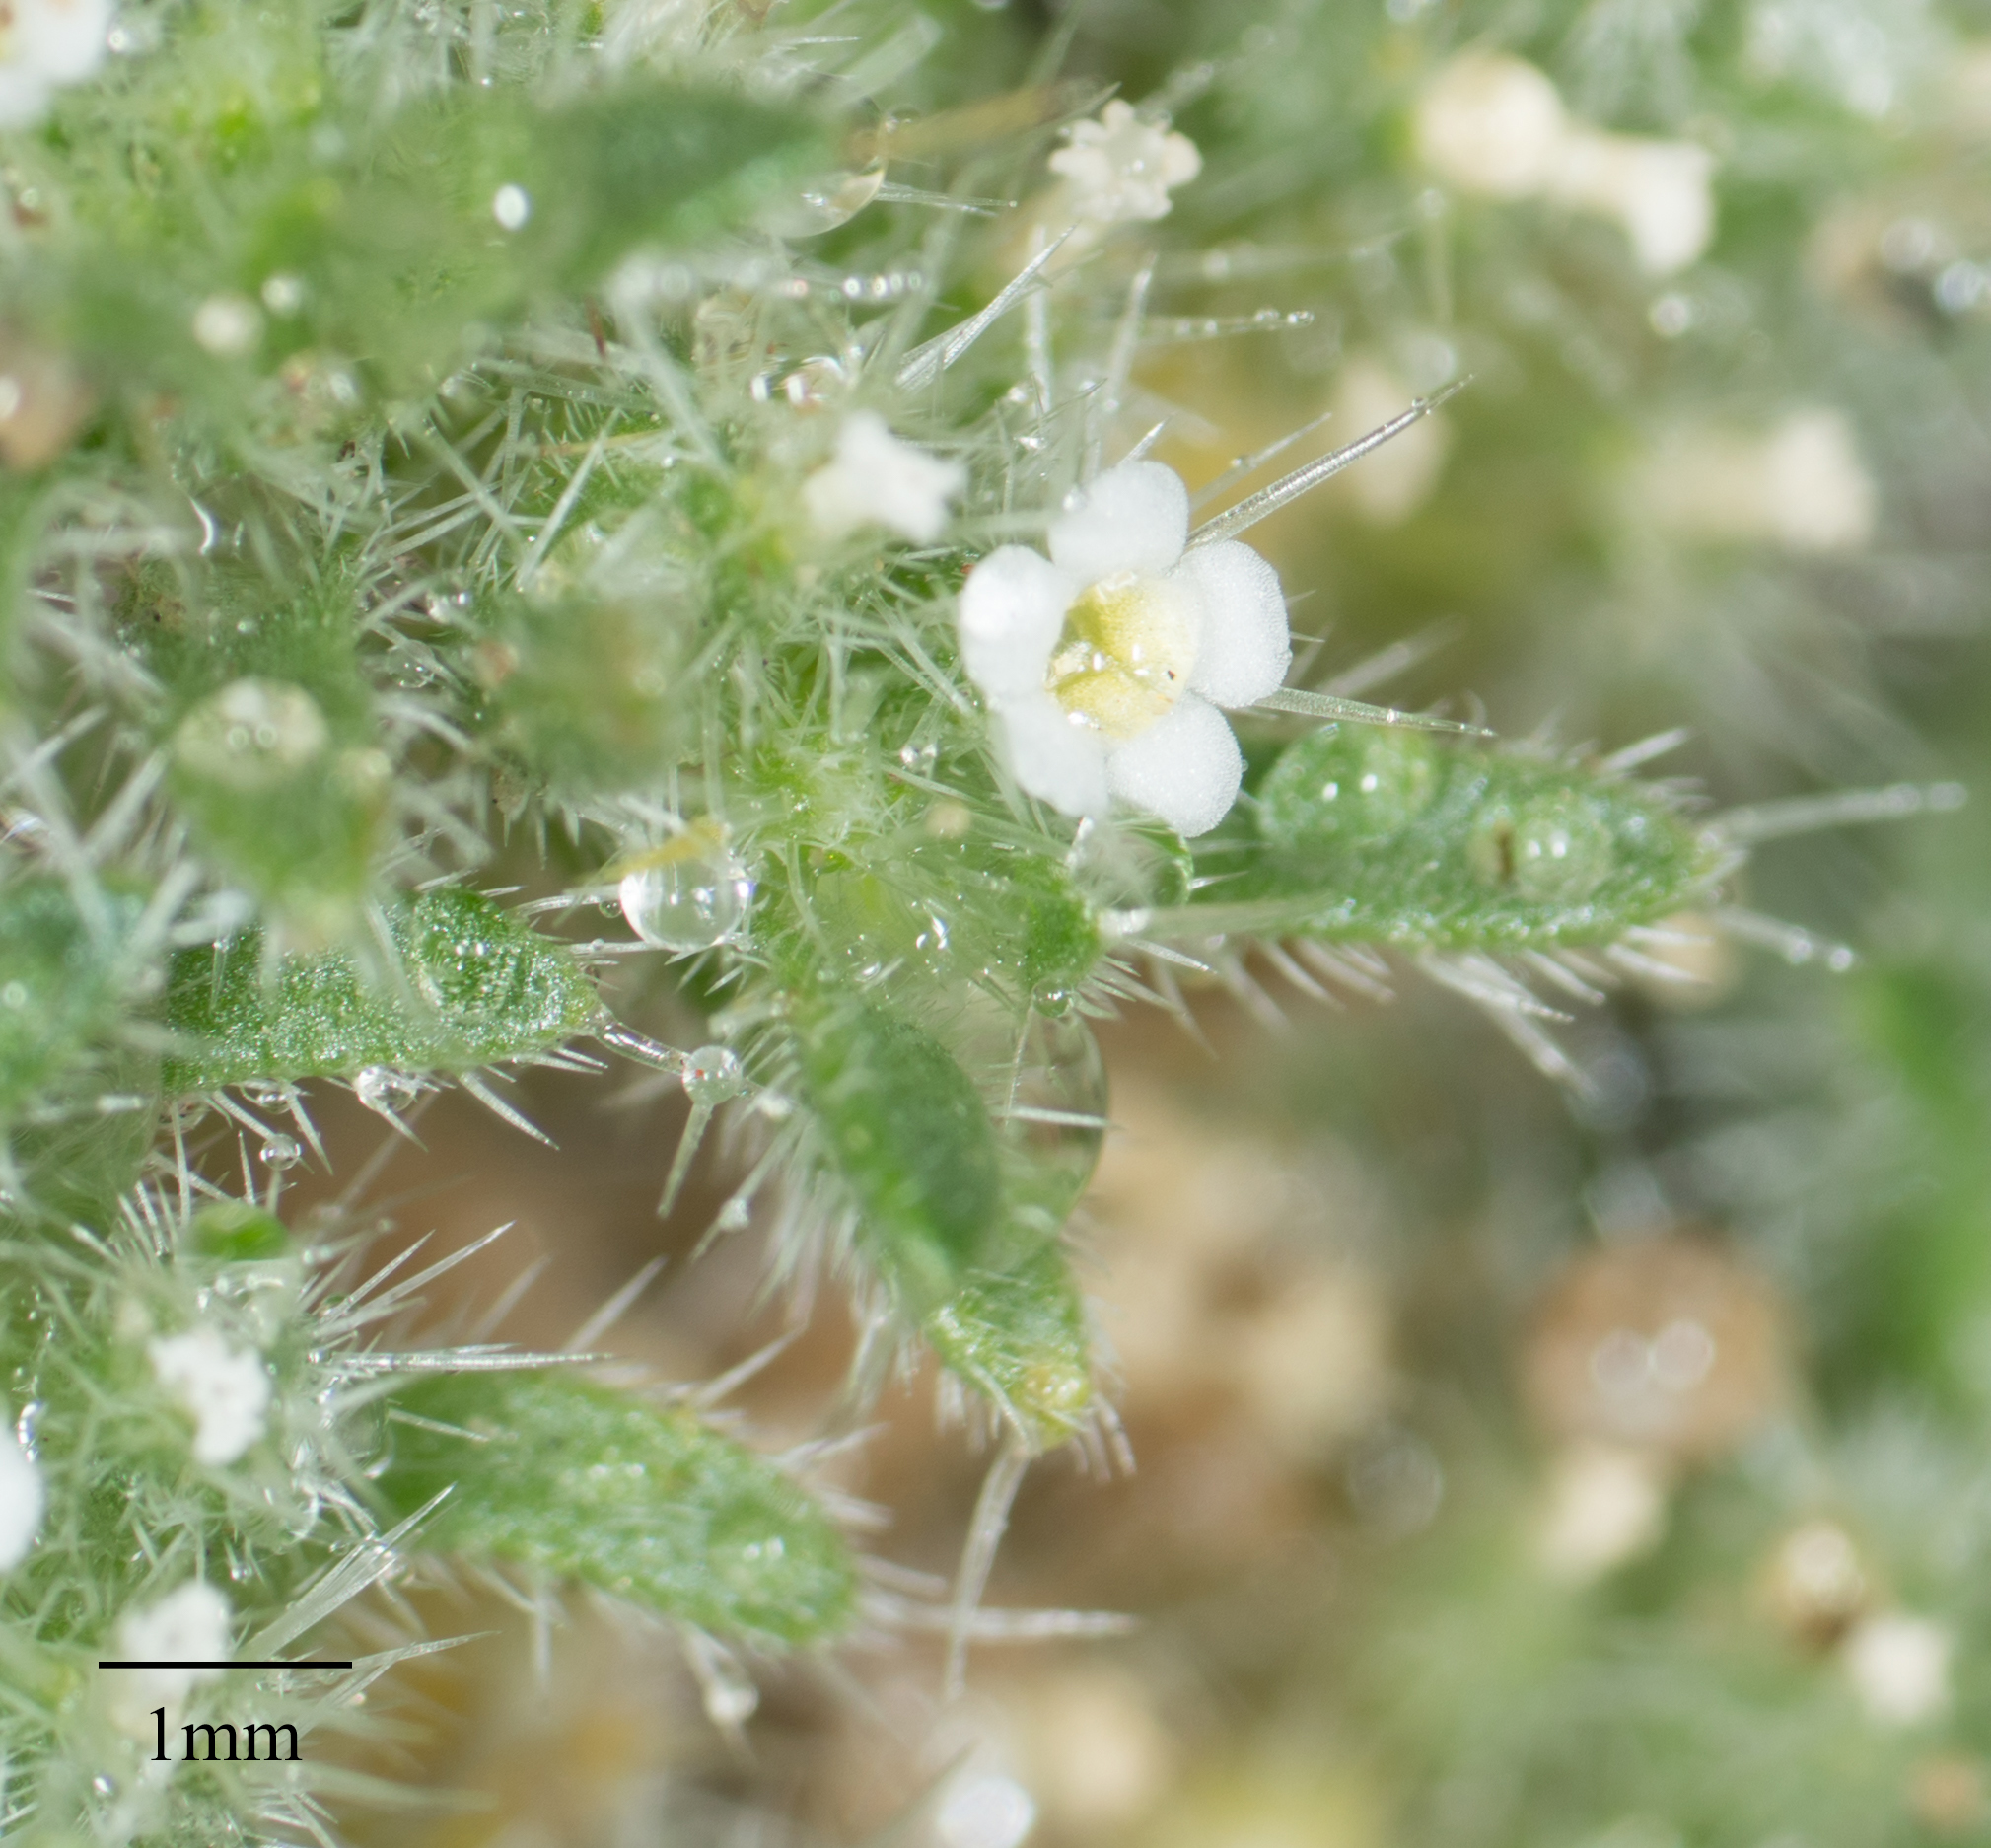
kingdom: Plantae
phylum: Tracheophyta
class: Magnoliopsida
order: Boraginales
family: Boraginaceae
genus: Greeneocharis
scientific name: Greeneocharis circumscissa
